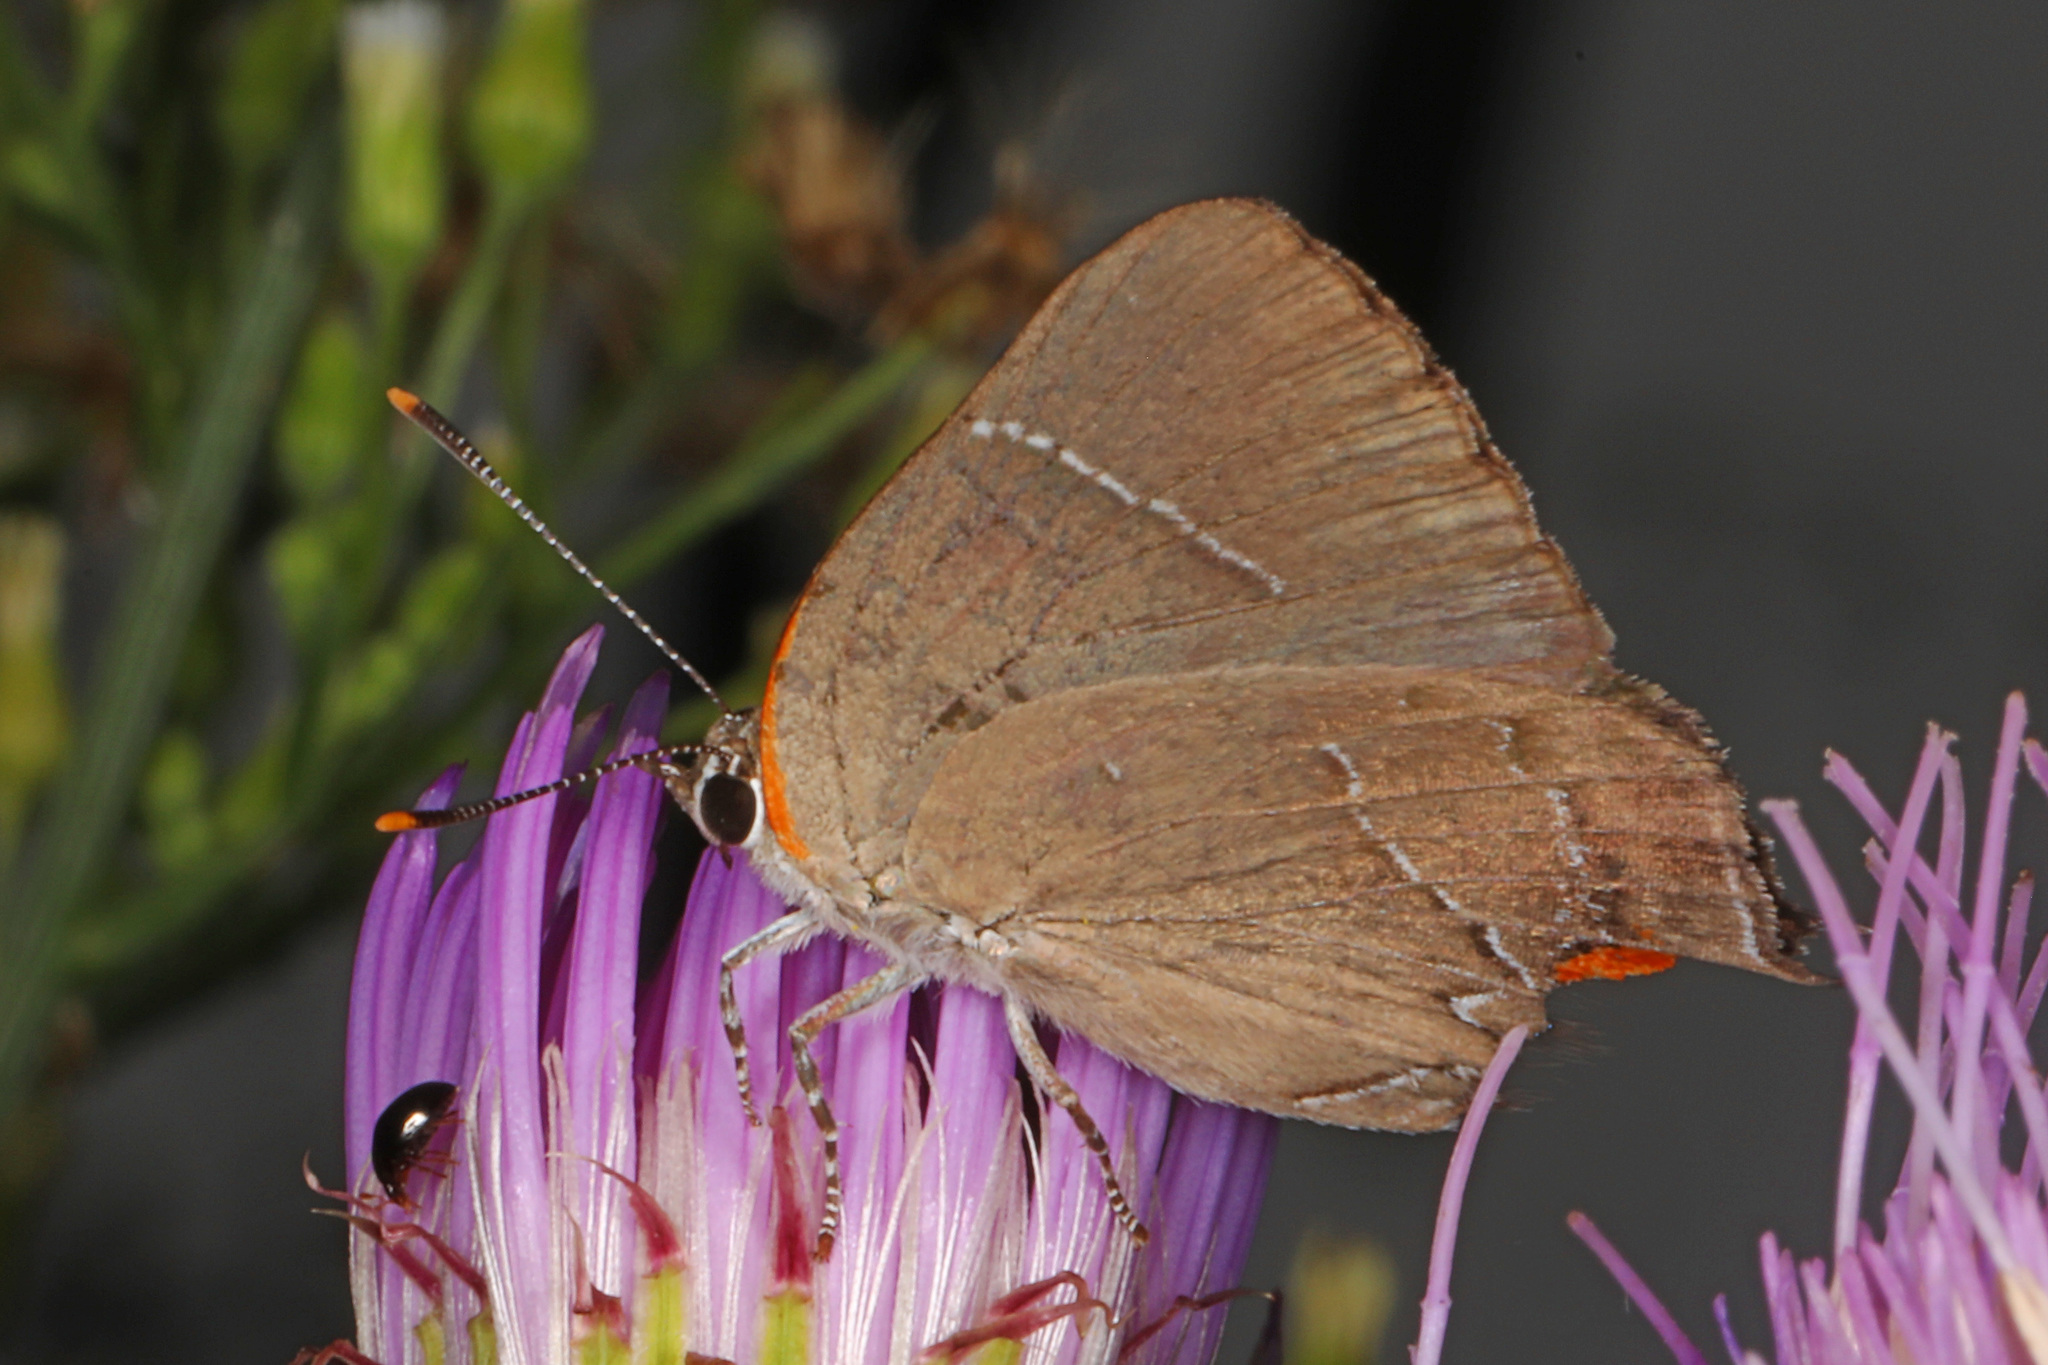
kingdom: Animalia
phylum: Arthropoda
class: Insecta
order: Lepidoptera
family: Lycaenidae
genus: Parrhasius
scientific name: Parrhasius m-album
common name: White m hairstreak
